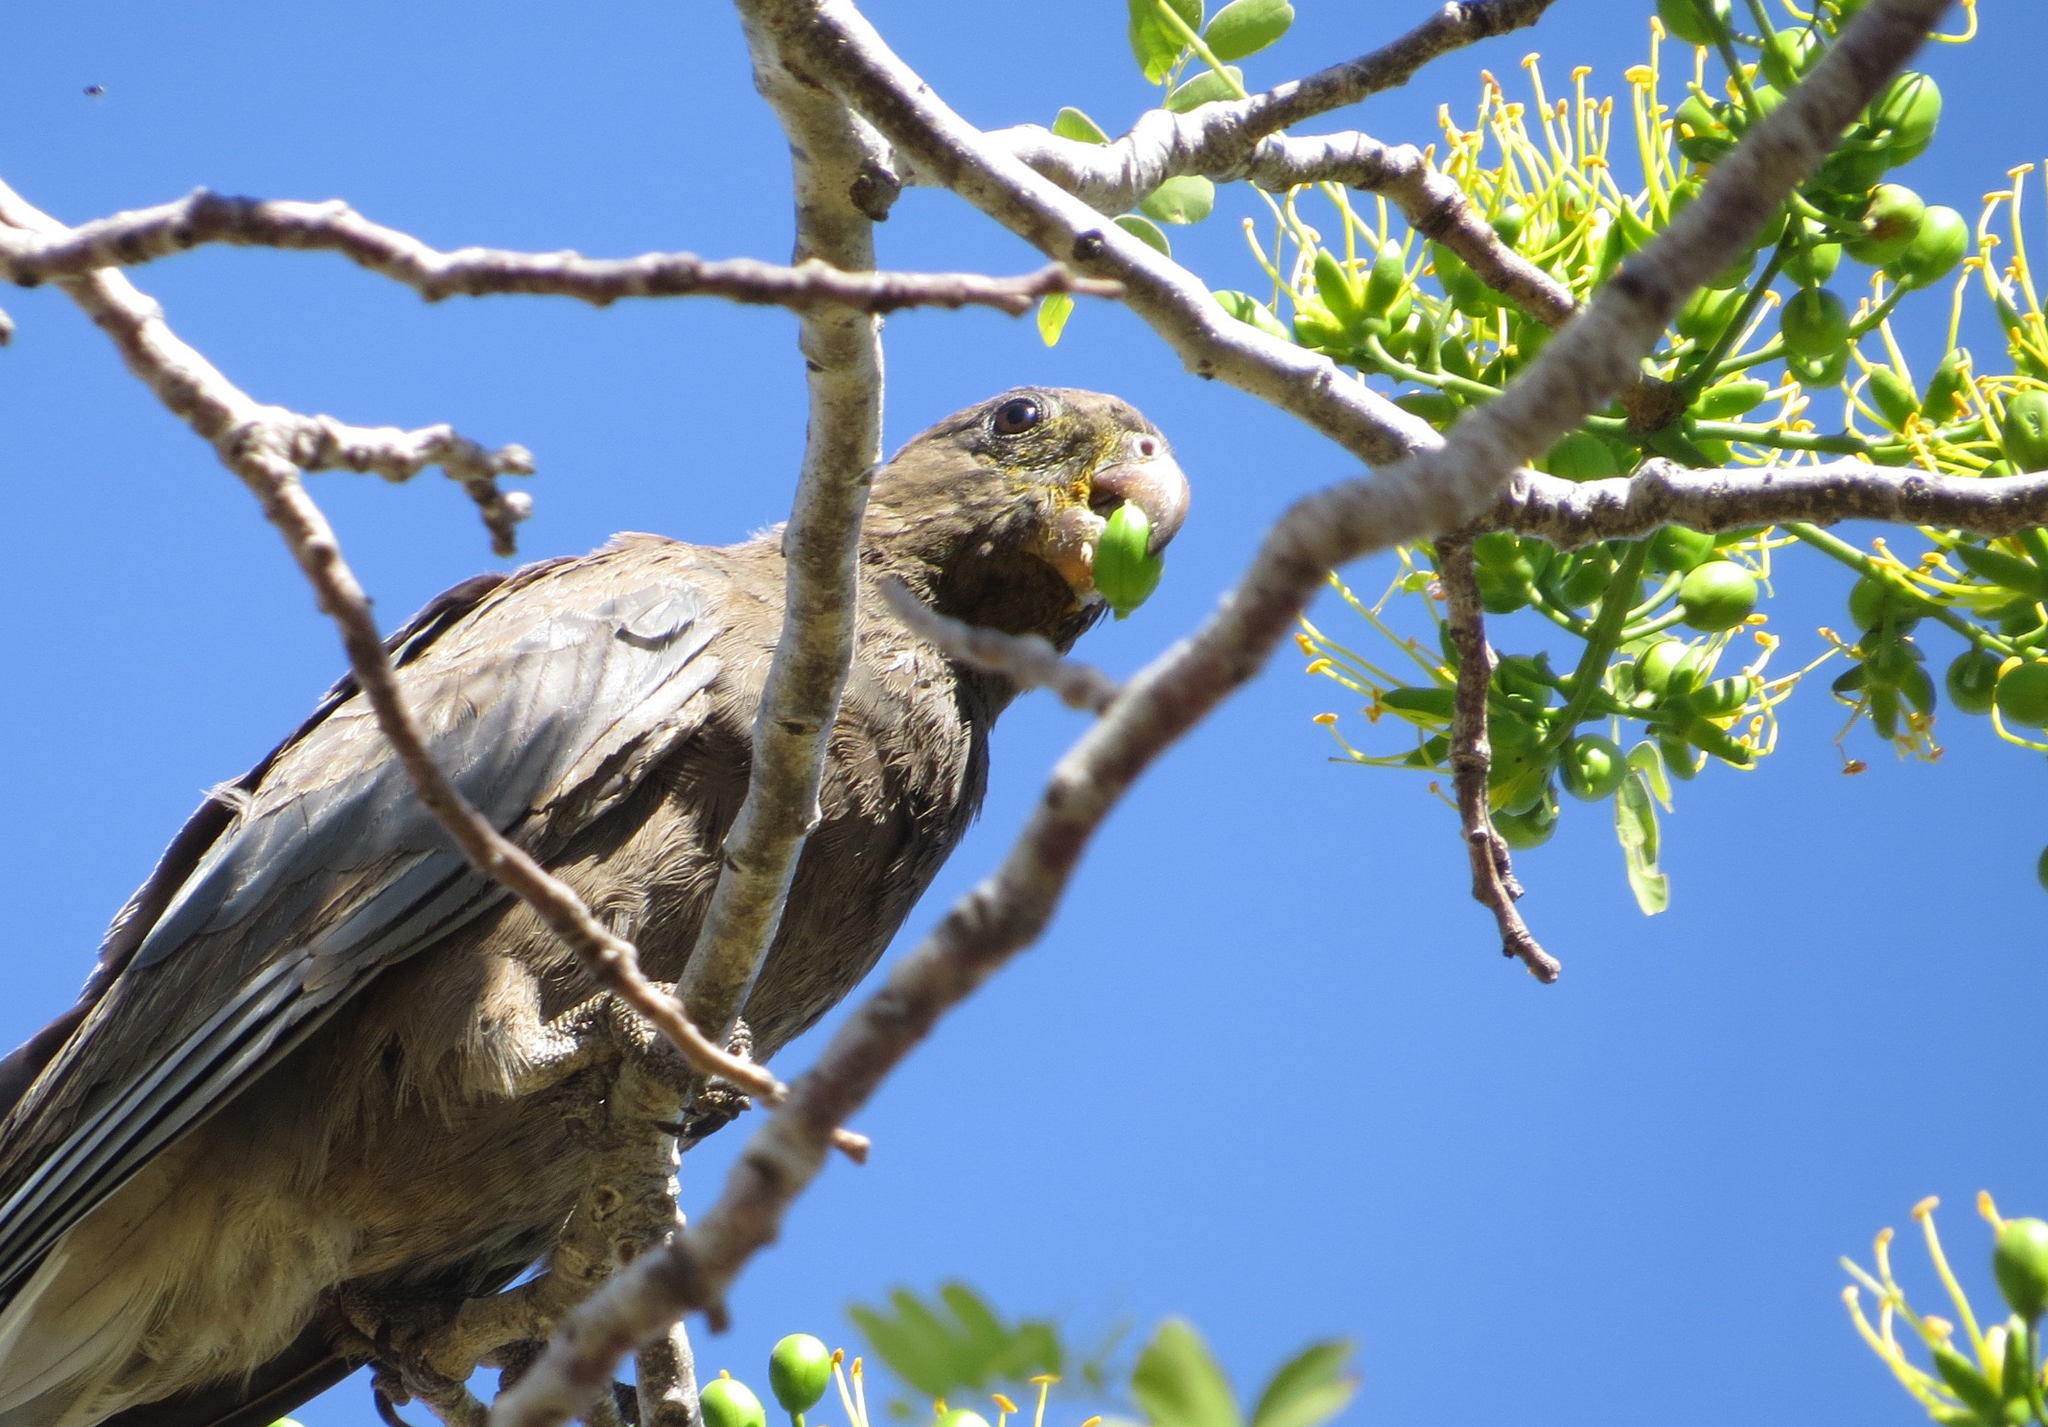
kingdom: Animalia
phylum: Chordata
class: Aves
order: Psittaciformes
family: Psittacidae
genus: Coracopsis
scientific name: Coracopsis nigra
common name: Lesser vasa parrot
